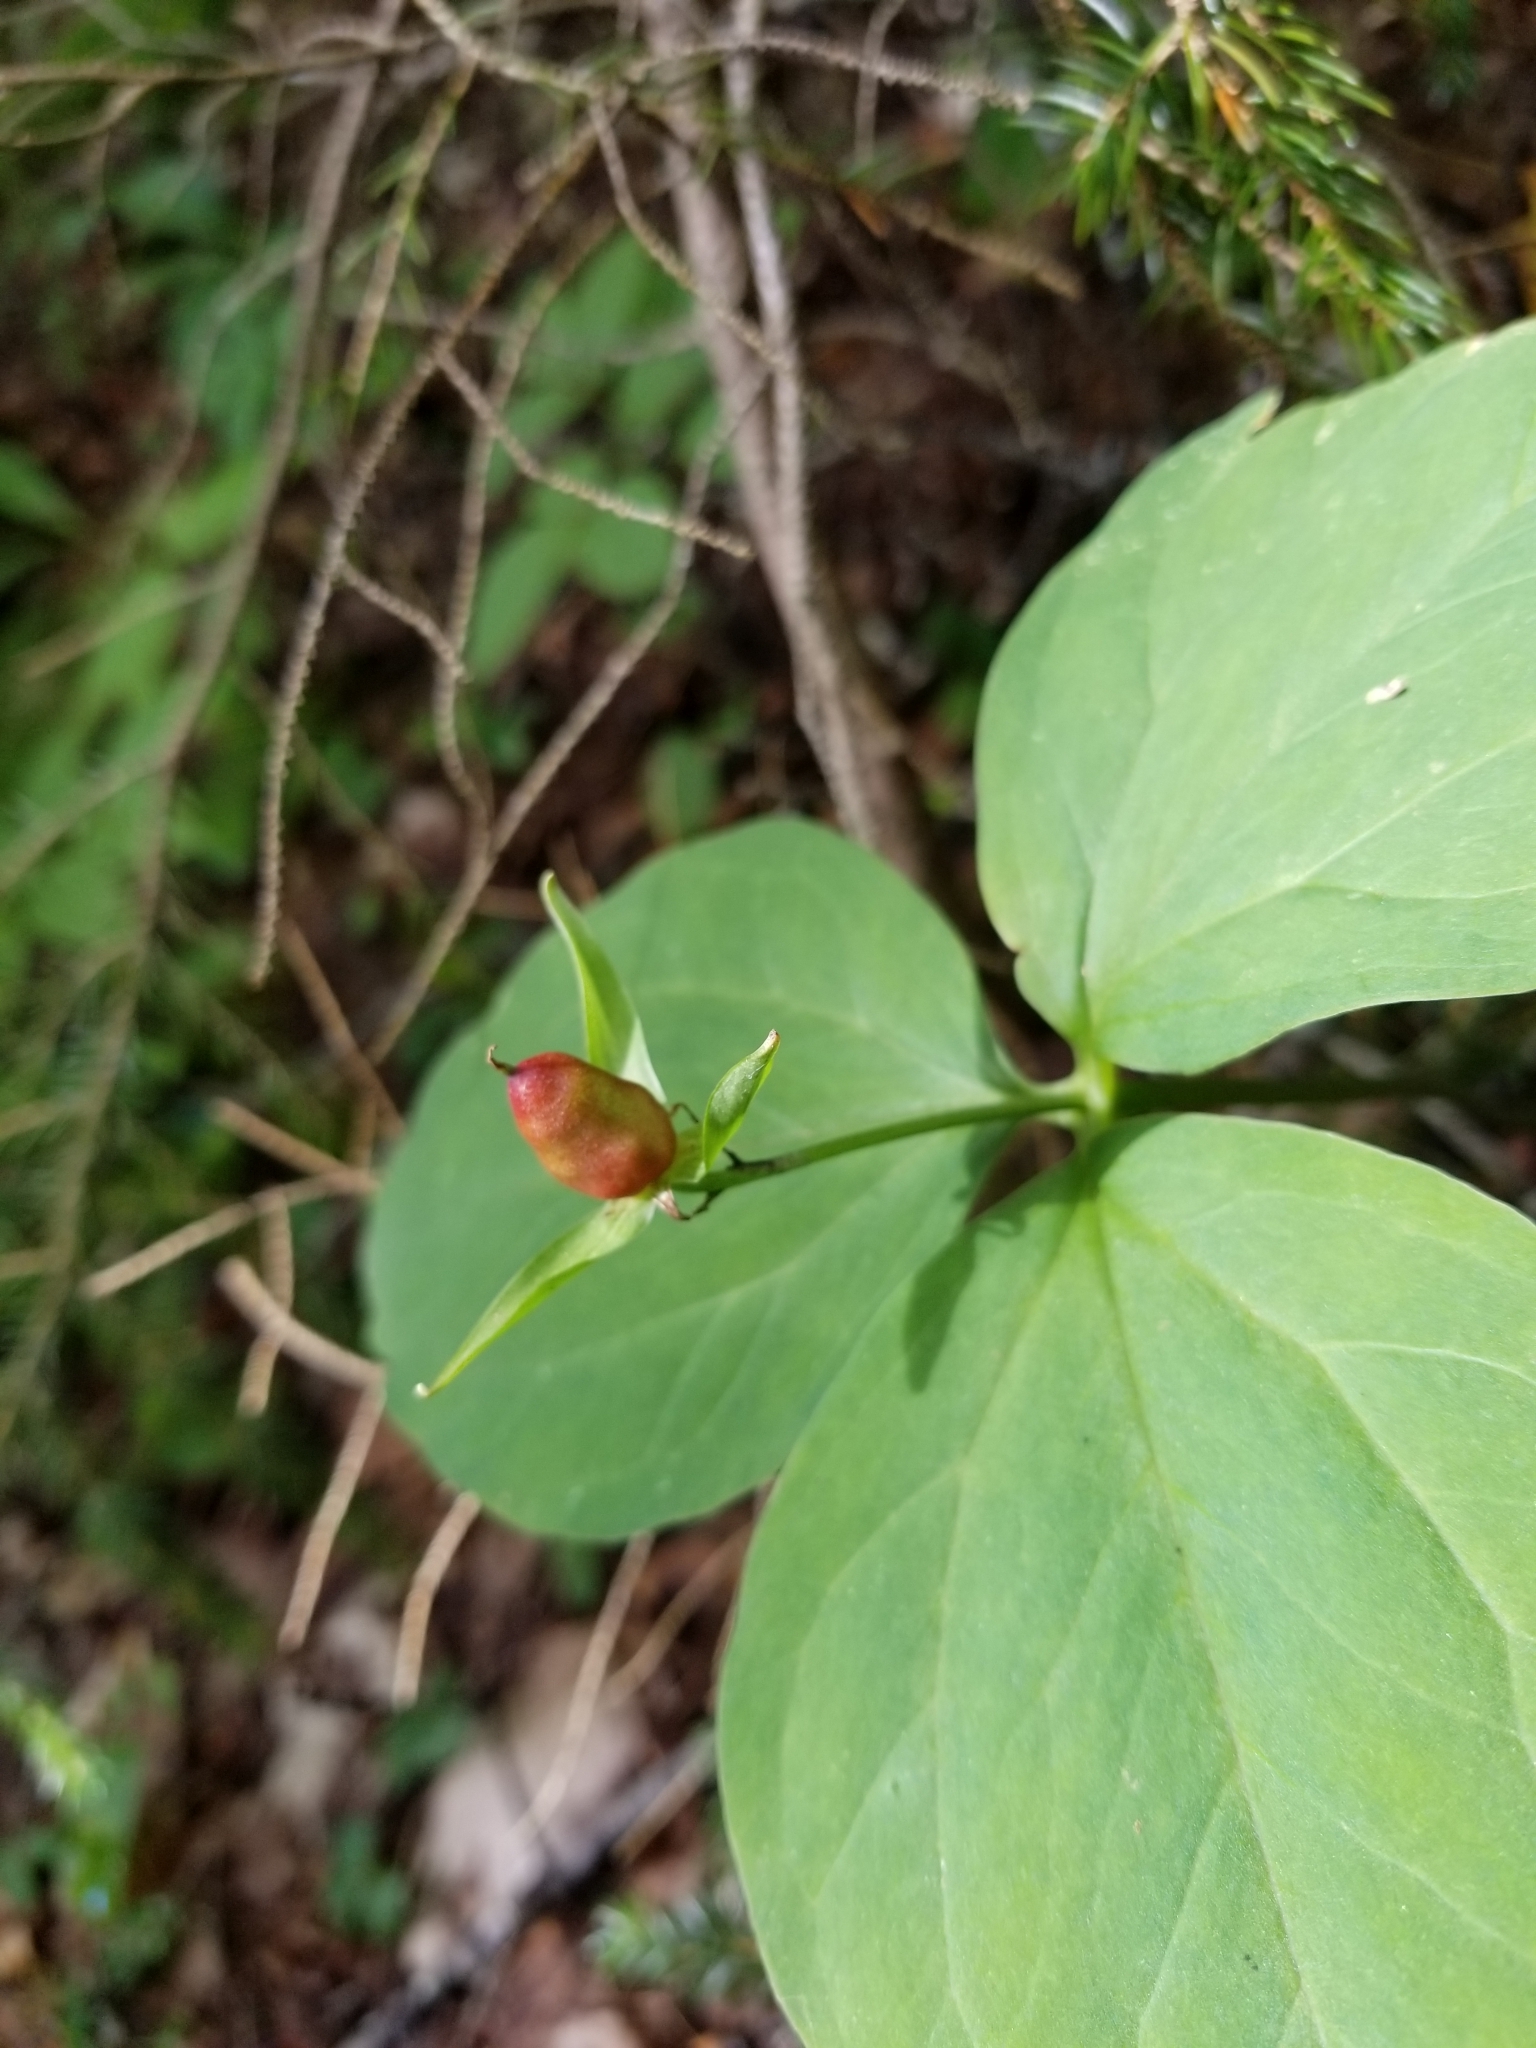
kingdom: Plantae
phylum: Tracheophyta
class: Liliopsida
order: Liliales
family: Melanthiaceae
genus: Trillium
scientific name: Trillium undulatum
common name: Paint trillium
